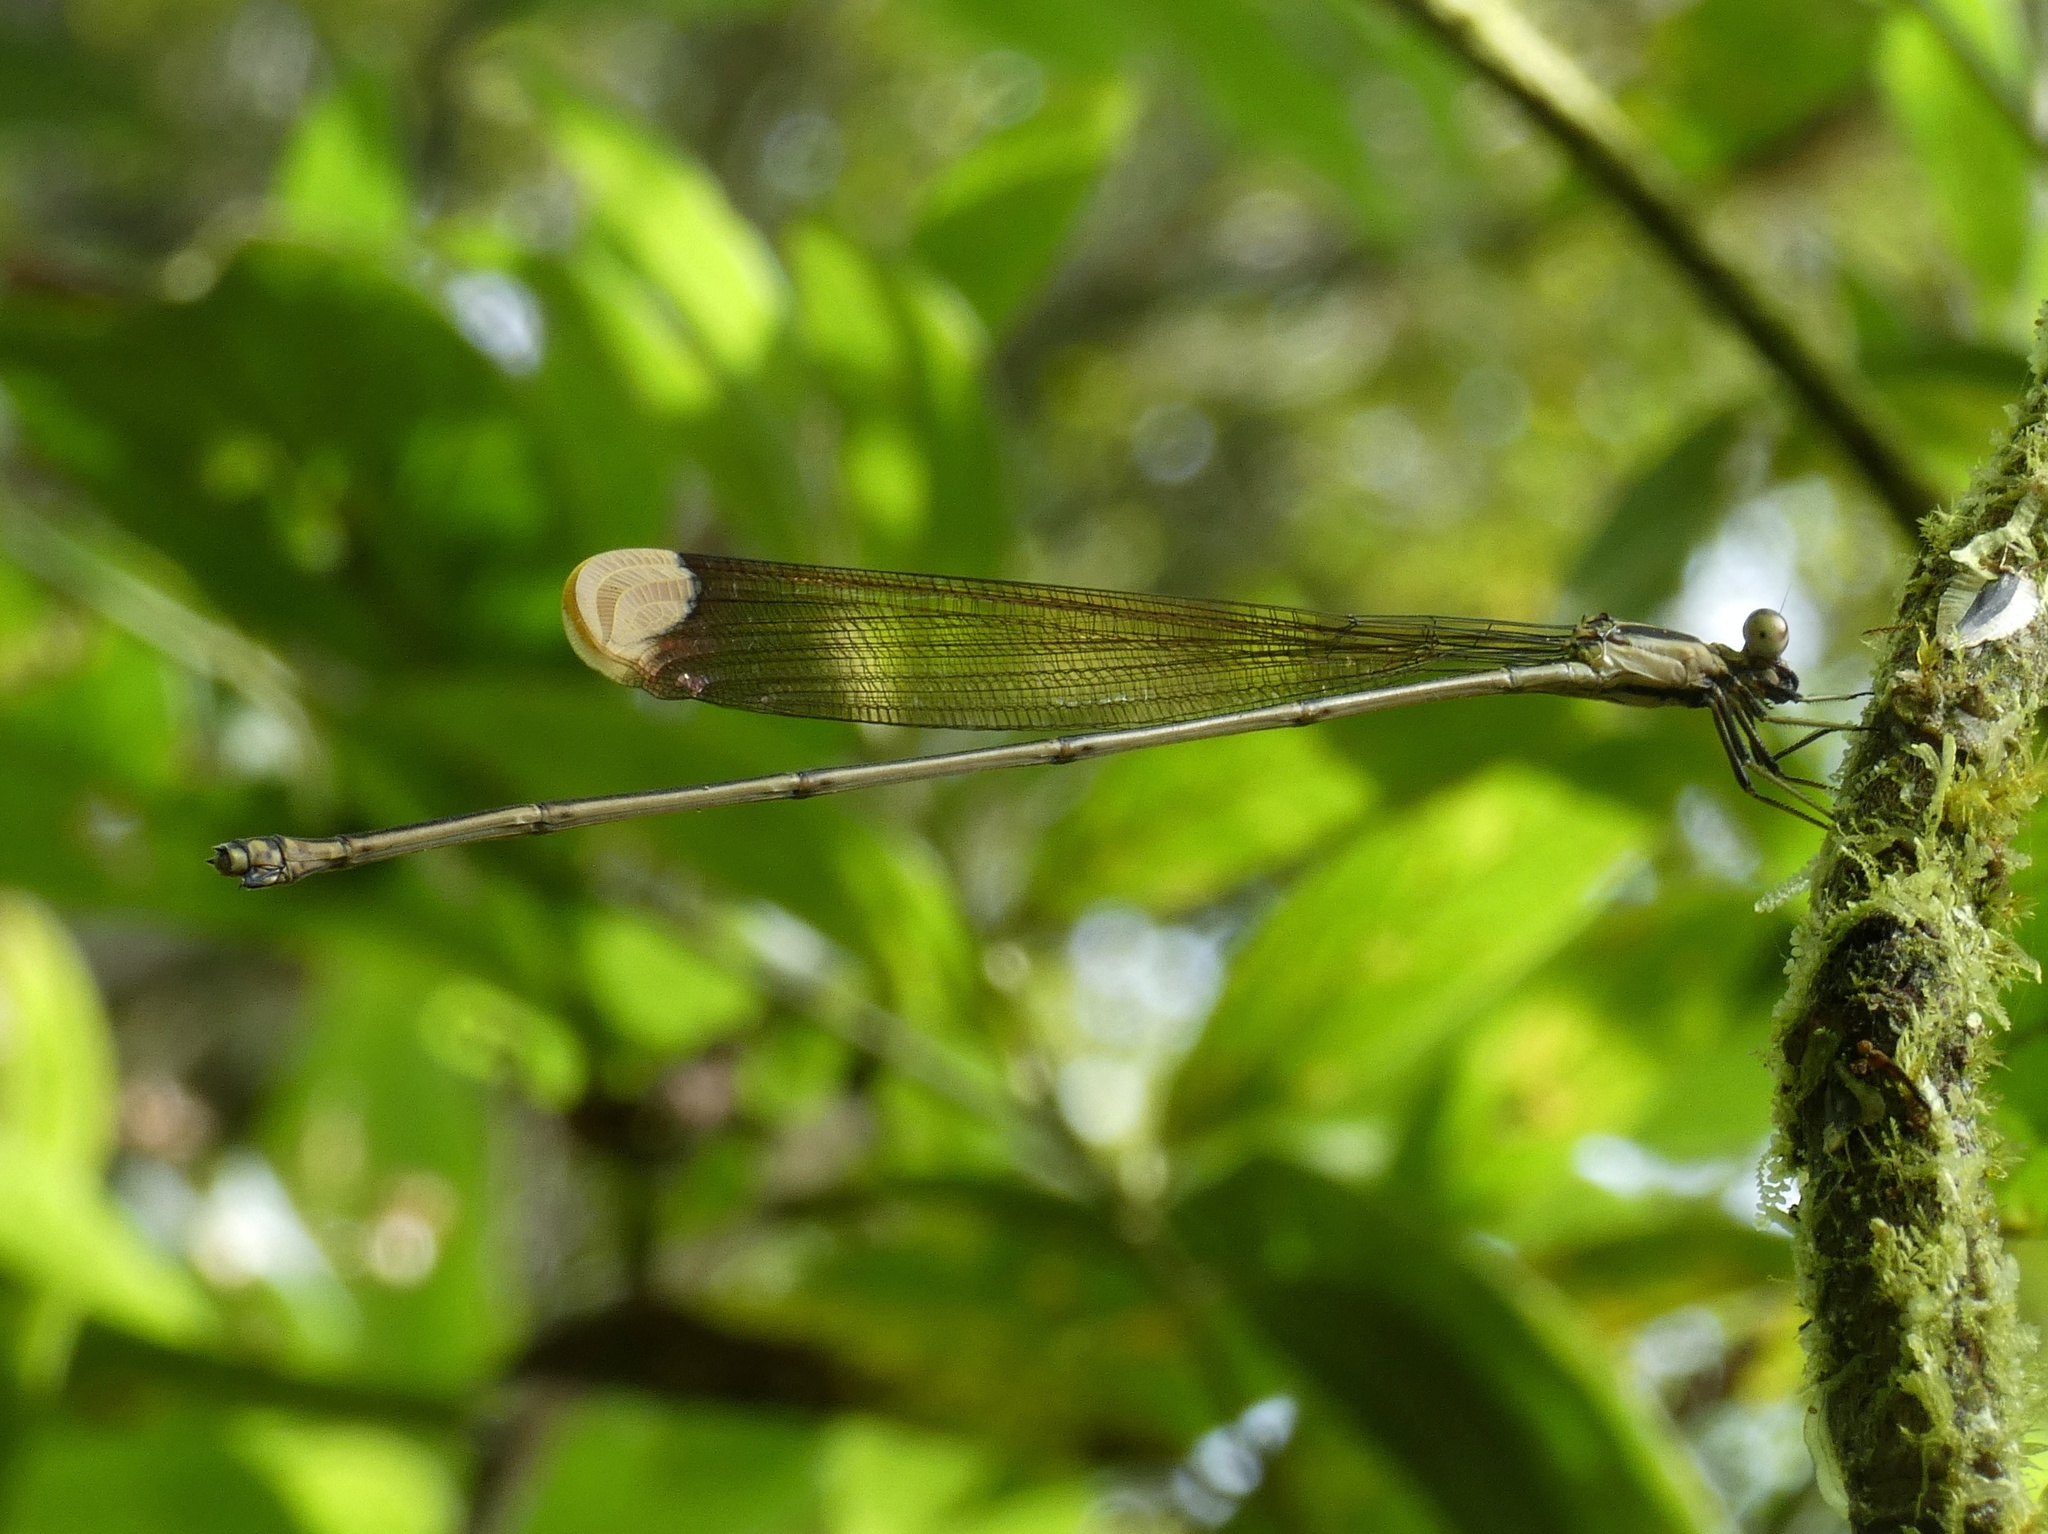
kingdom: Animalia
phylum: Arthropoda
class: Insecta
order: Odonata
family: Coenagrionidae
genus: Mecistogaster
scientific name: Mecistogaster ornata
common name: Ornate helicopter
